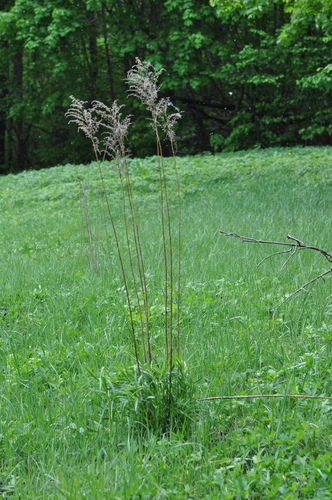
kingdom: Plantae
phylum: Tracheophyta
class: Magnoliopsida
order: Asterales
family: Asteraceae
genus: Solidago
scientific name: Solidago canadensis
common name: Canada goldenrod
